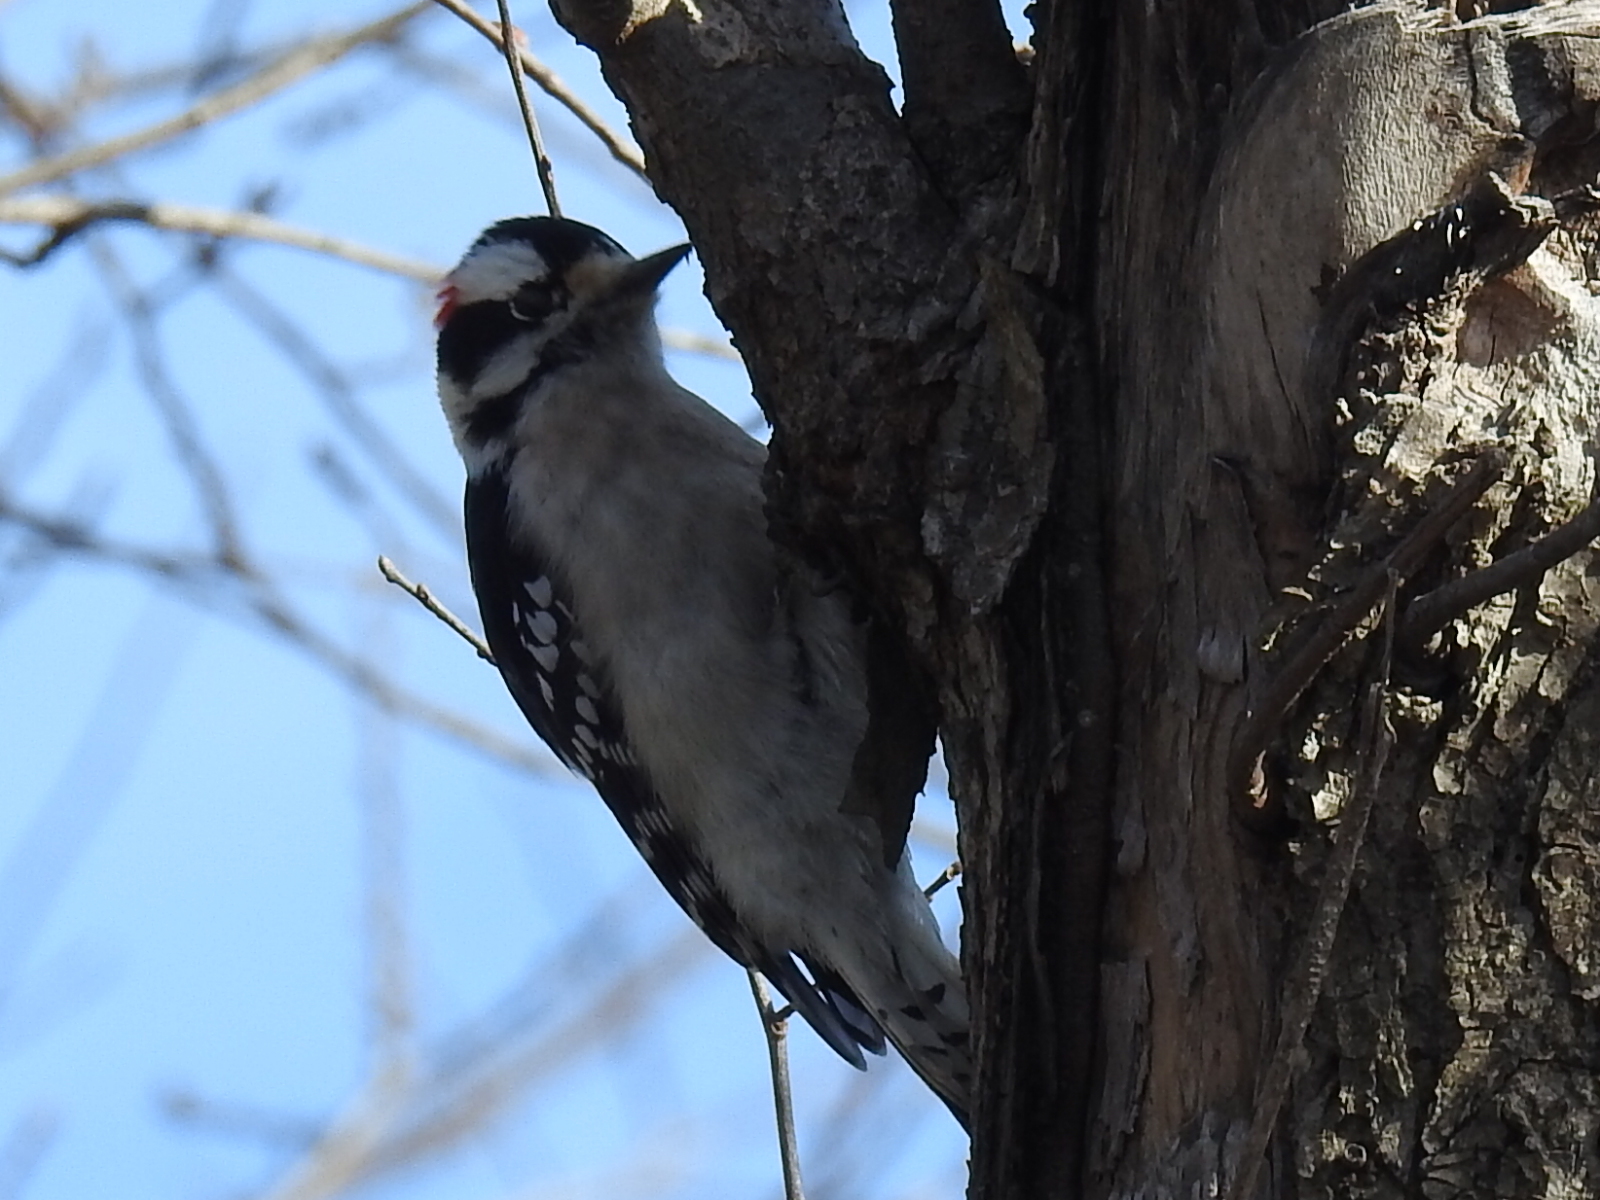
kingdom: Animalia
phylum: Chordata
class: Aves
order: Piciformes
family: Picidae
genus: Dryobates
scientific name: Dryobates pubescens
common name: Downy woodpecker
